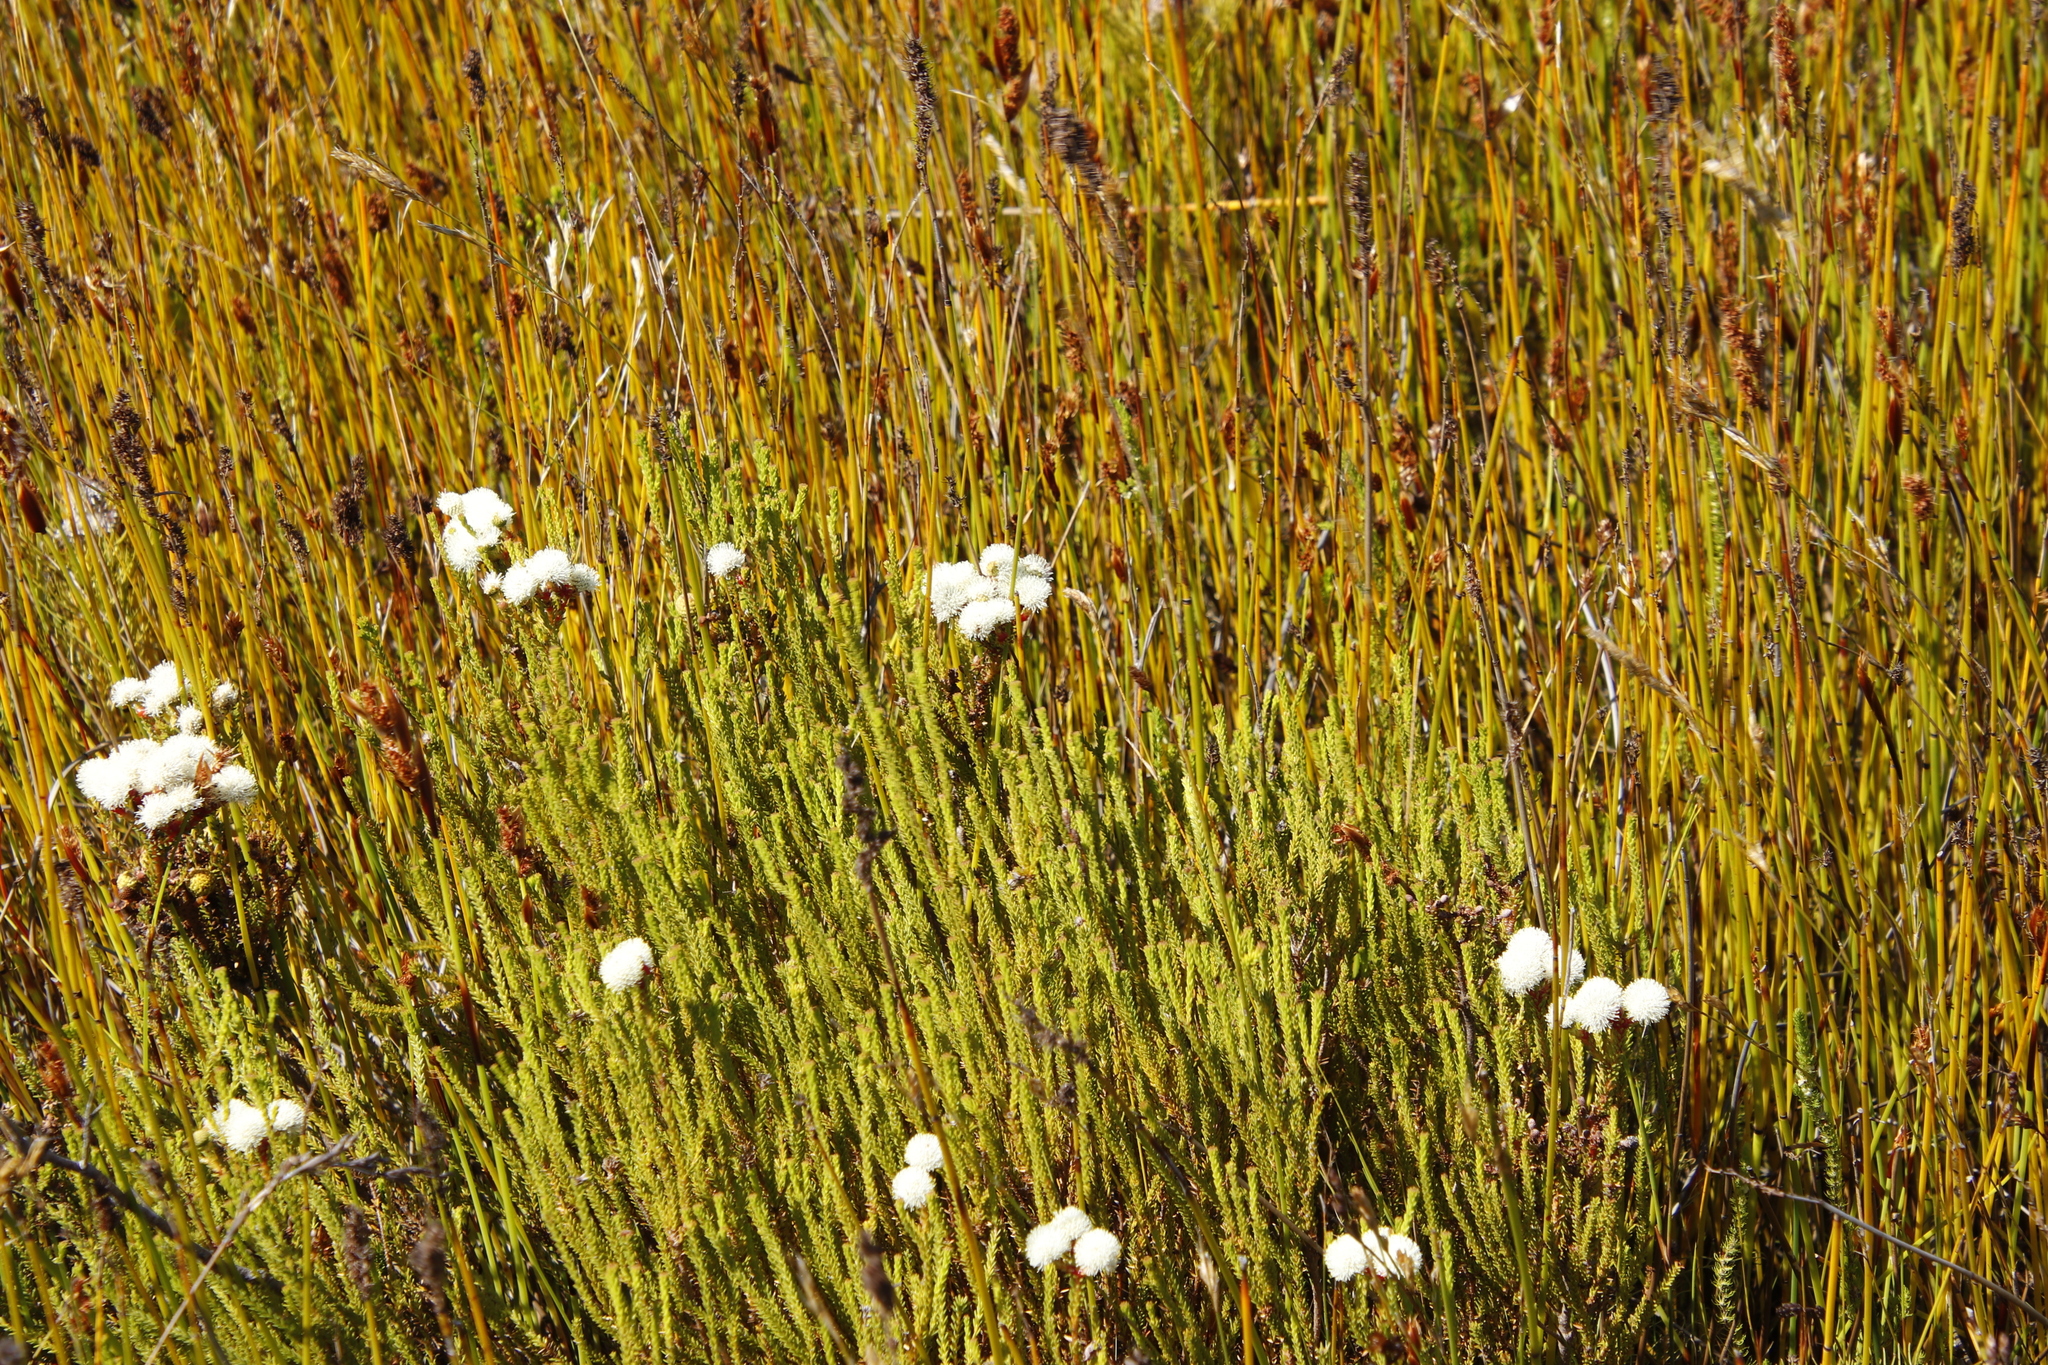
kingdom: Plantae
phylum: Tracheophyta
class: Magnoliopsida
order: Bruniales
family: Bruniaceae
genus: Berzelia
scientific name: Berzelia abrotanoides
